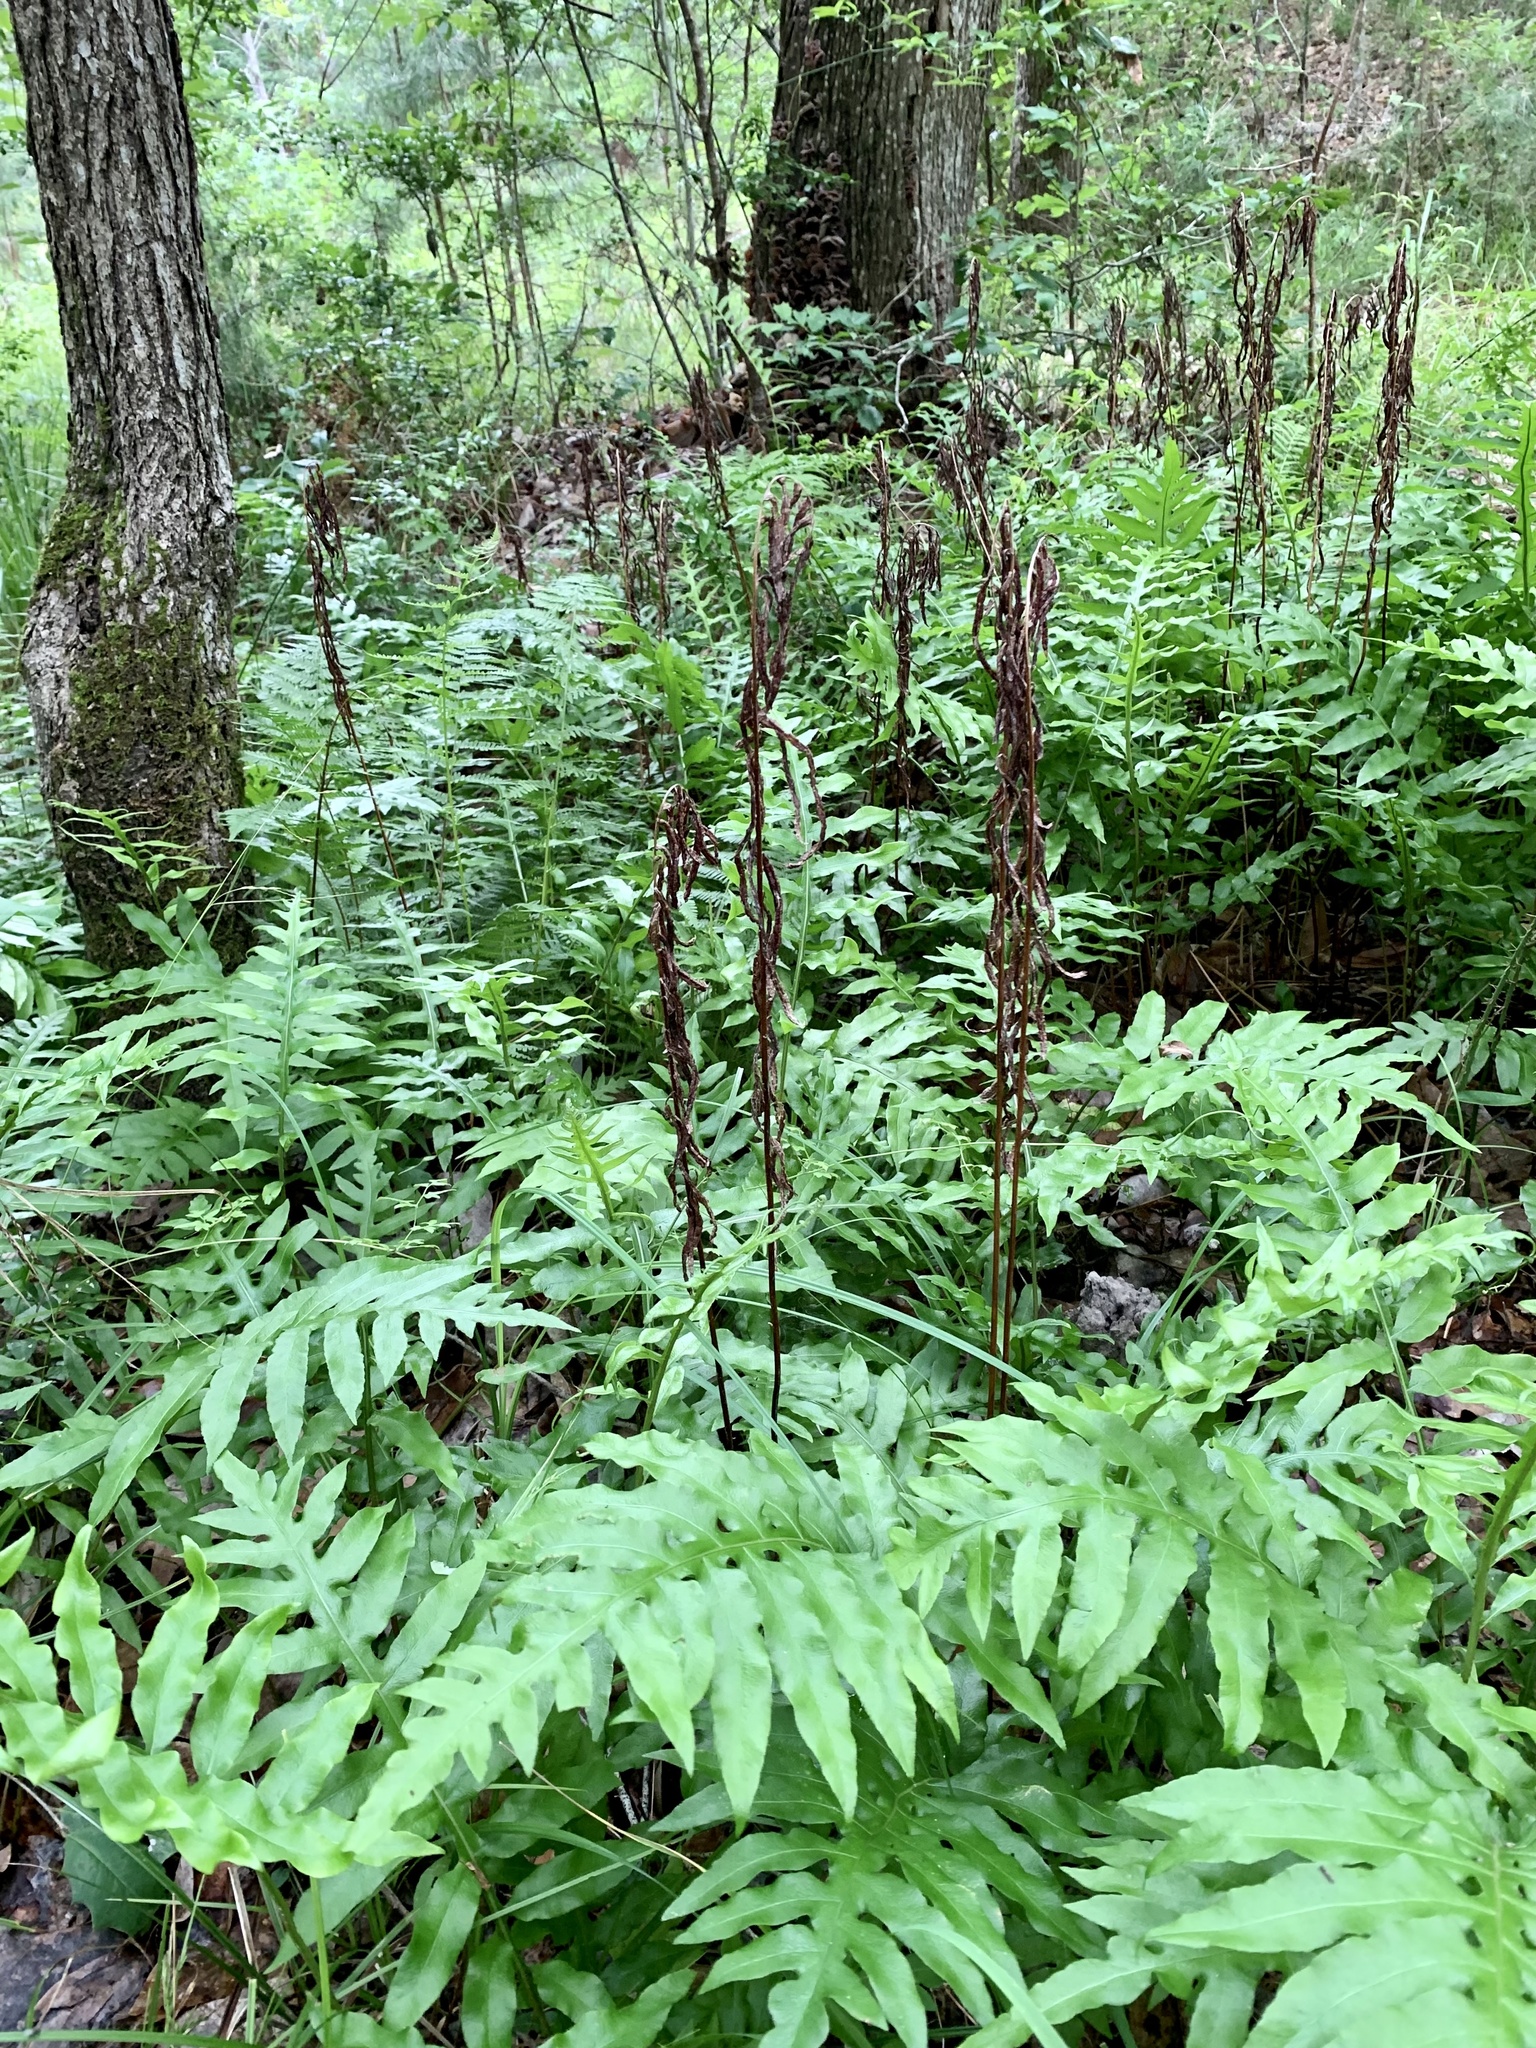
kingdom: Plantae
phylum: Tracheophyta
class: Polypodiopsida
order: Polypodiales
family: Blechnaceae
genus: Lorinseria
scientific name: Lorinseria areolata
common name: Dwarf chain fern
